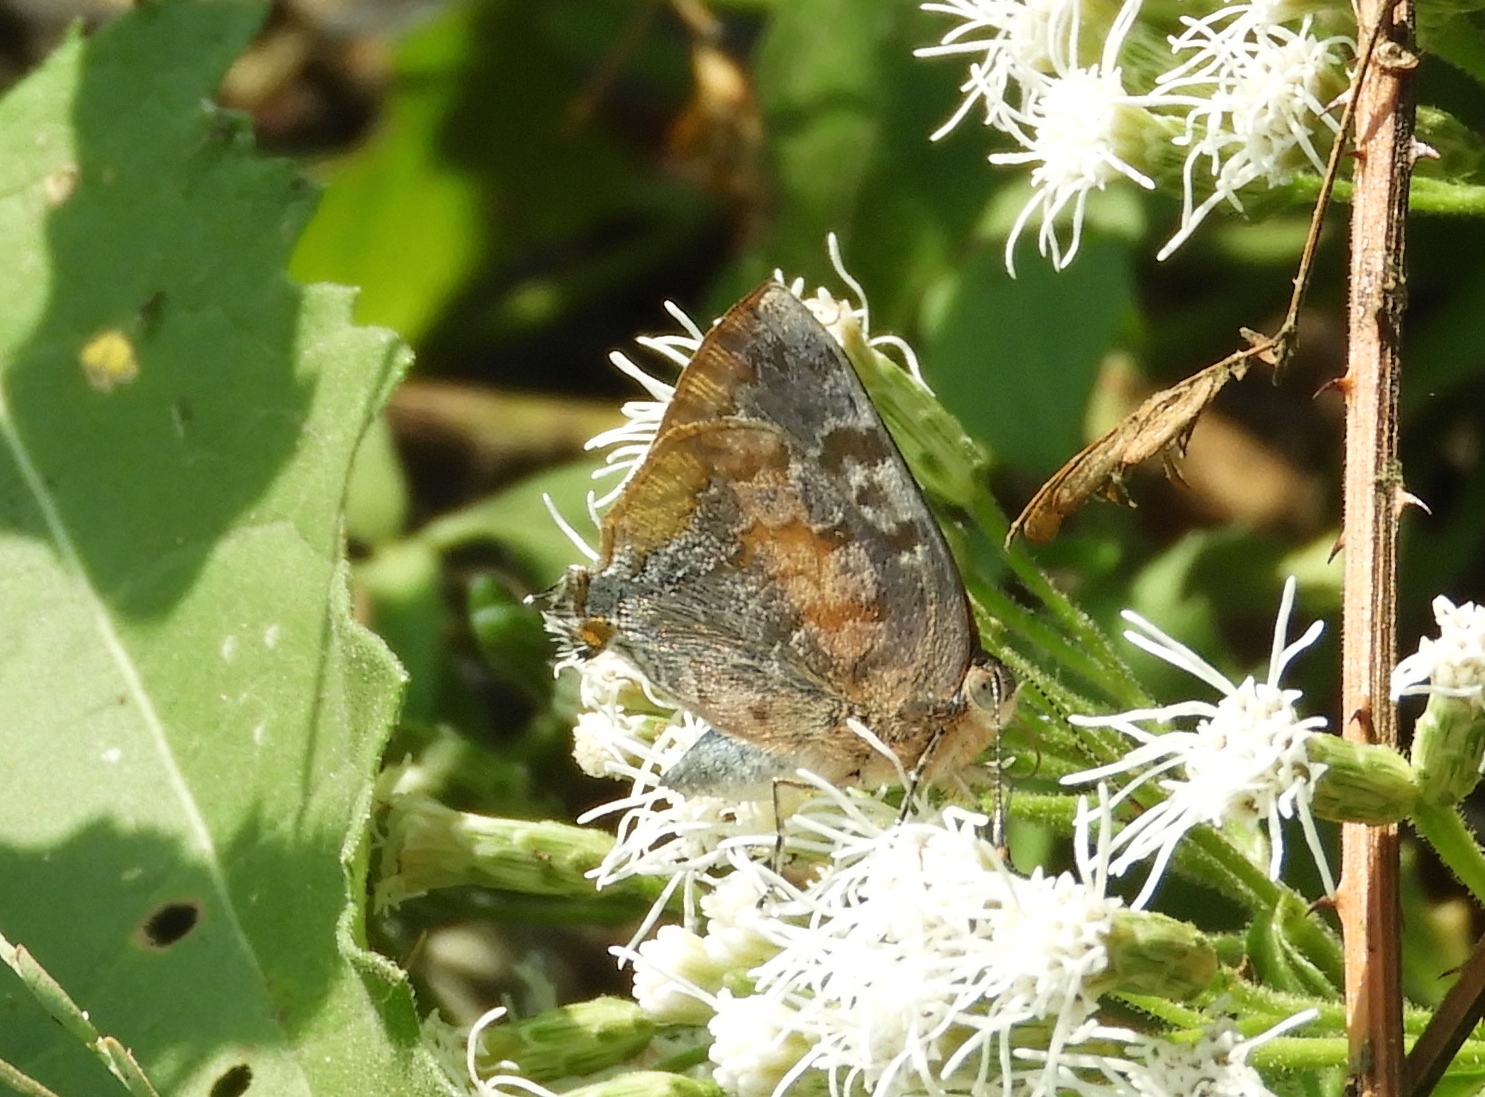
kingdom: Animalia
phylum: Arthropoda
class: Insecta
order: Lepidoptera
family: Lycaenidae
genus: Rekoa
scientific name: Rekoa palegon
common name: Gold-bordered hairstreak
